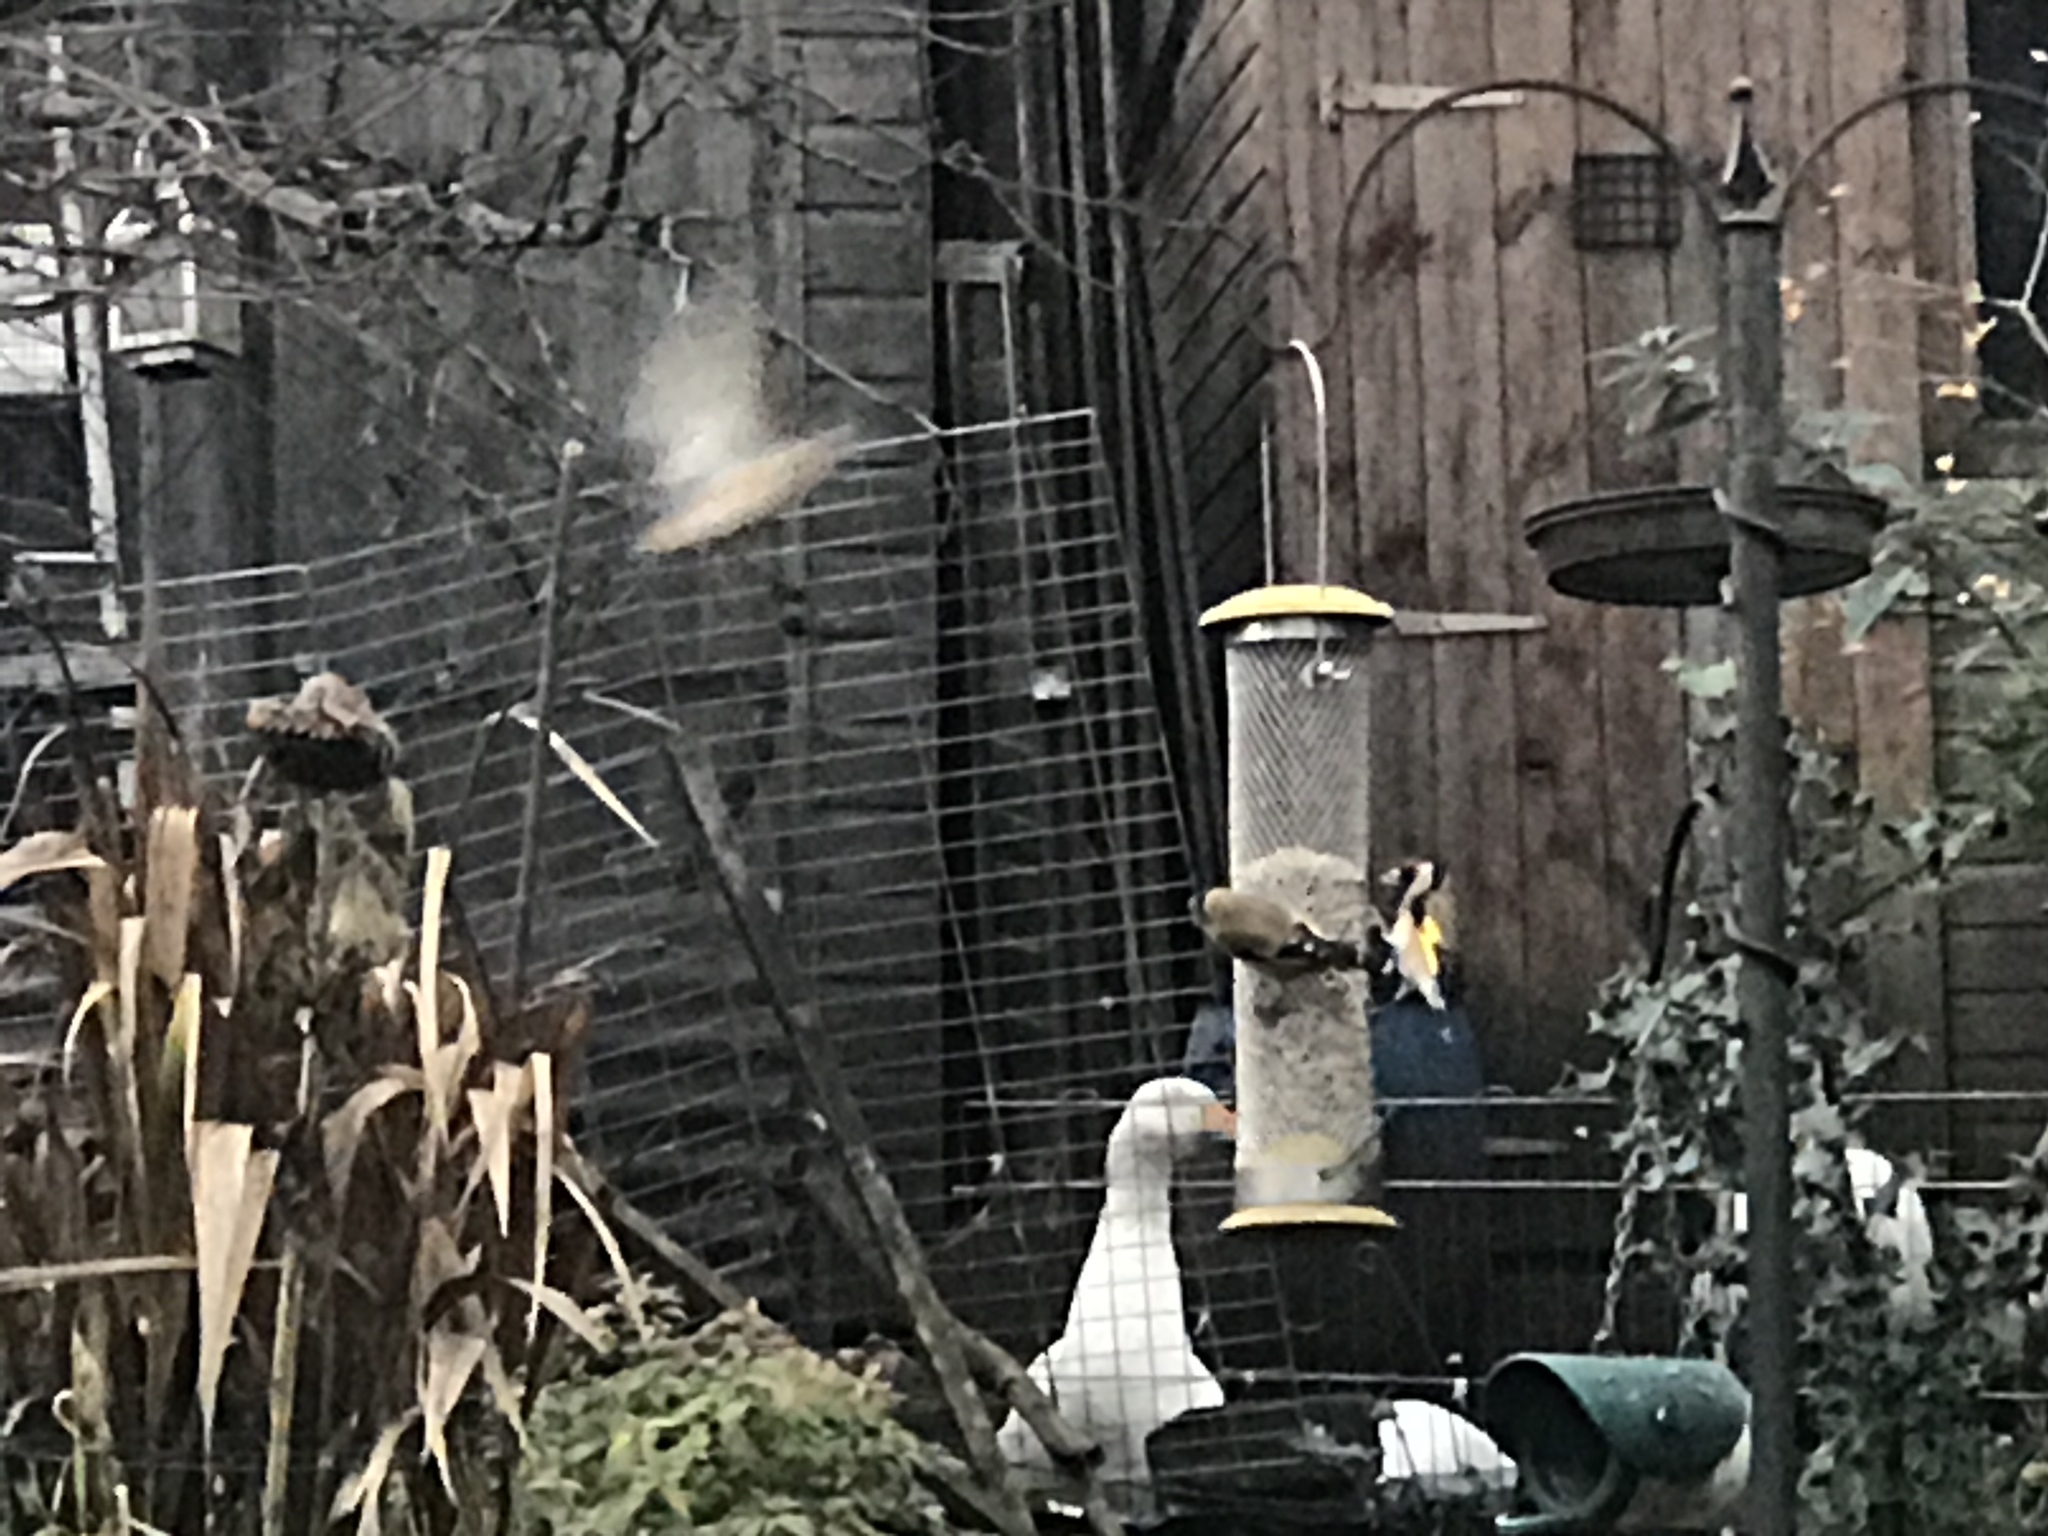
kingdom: Animalia
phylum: Chordata
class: Aves
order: Passeriformes
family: Fringillidae
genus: Carduelis
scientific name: Carduelis carduelis
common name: European goldfinch
